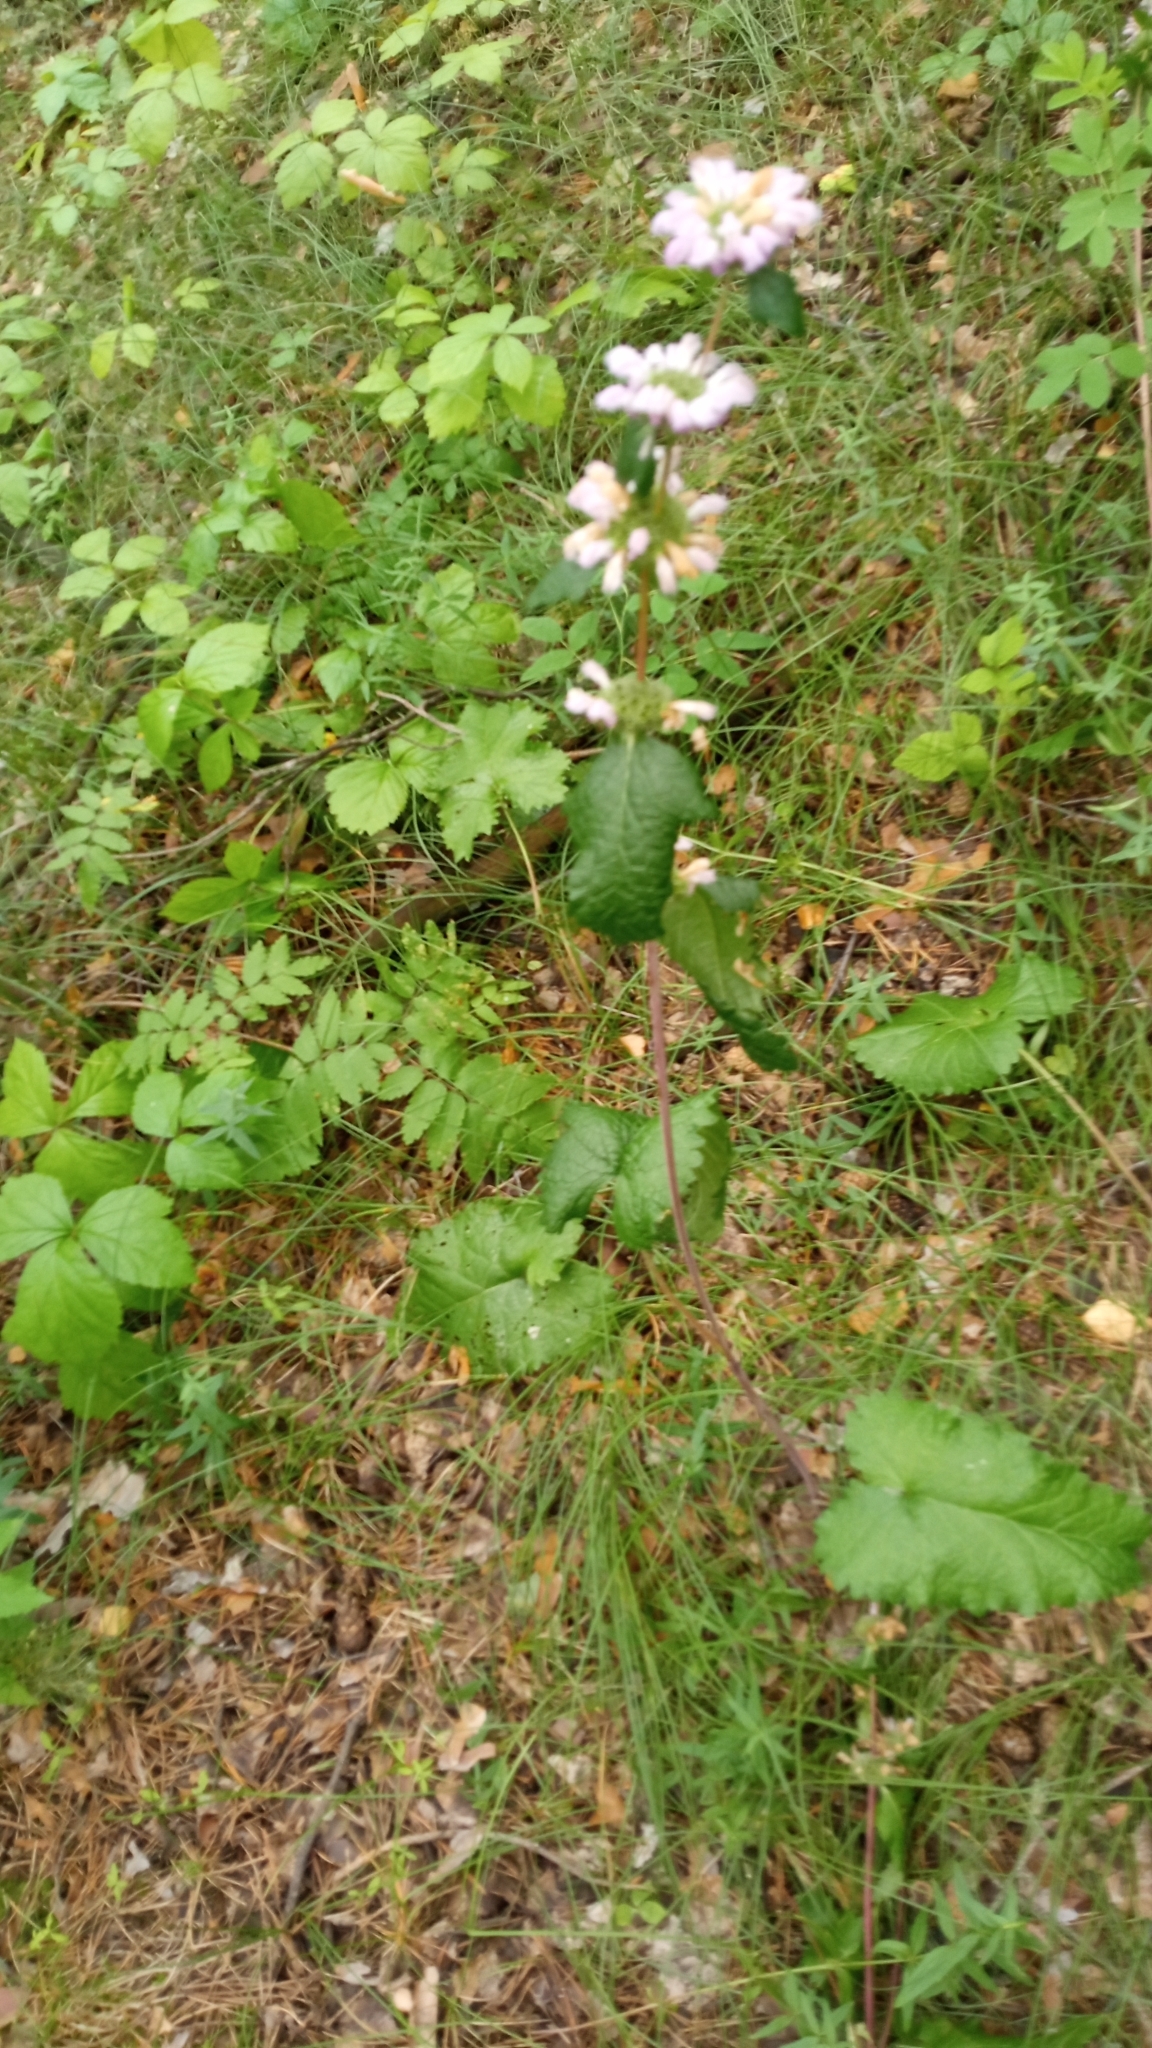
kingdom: Plantae
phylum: Tracheophyta
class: Magnoliopsida
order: Lamiales
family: Lamiaceae
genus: Phlomoides
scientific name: Phlomoides tuberosa
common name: Tuberous jerusalem sage
